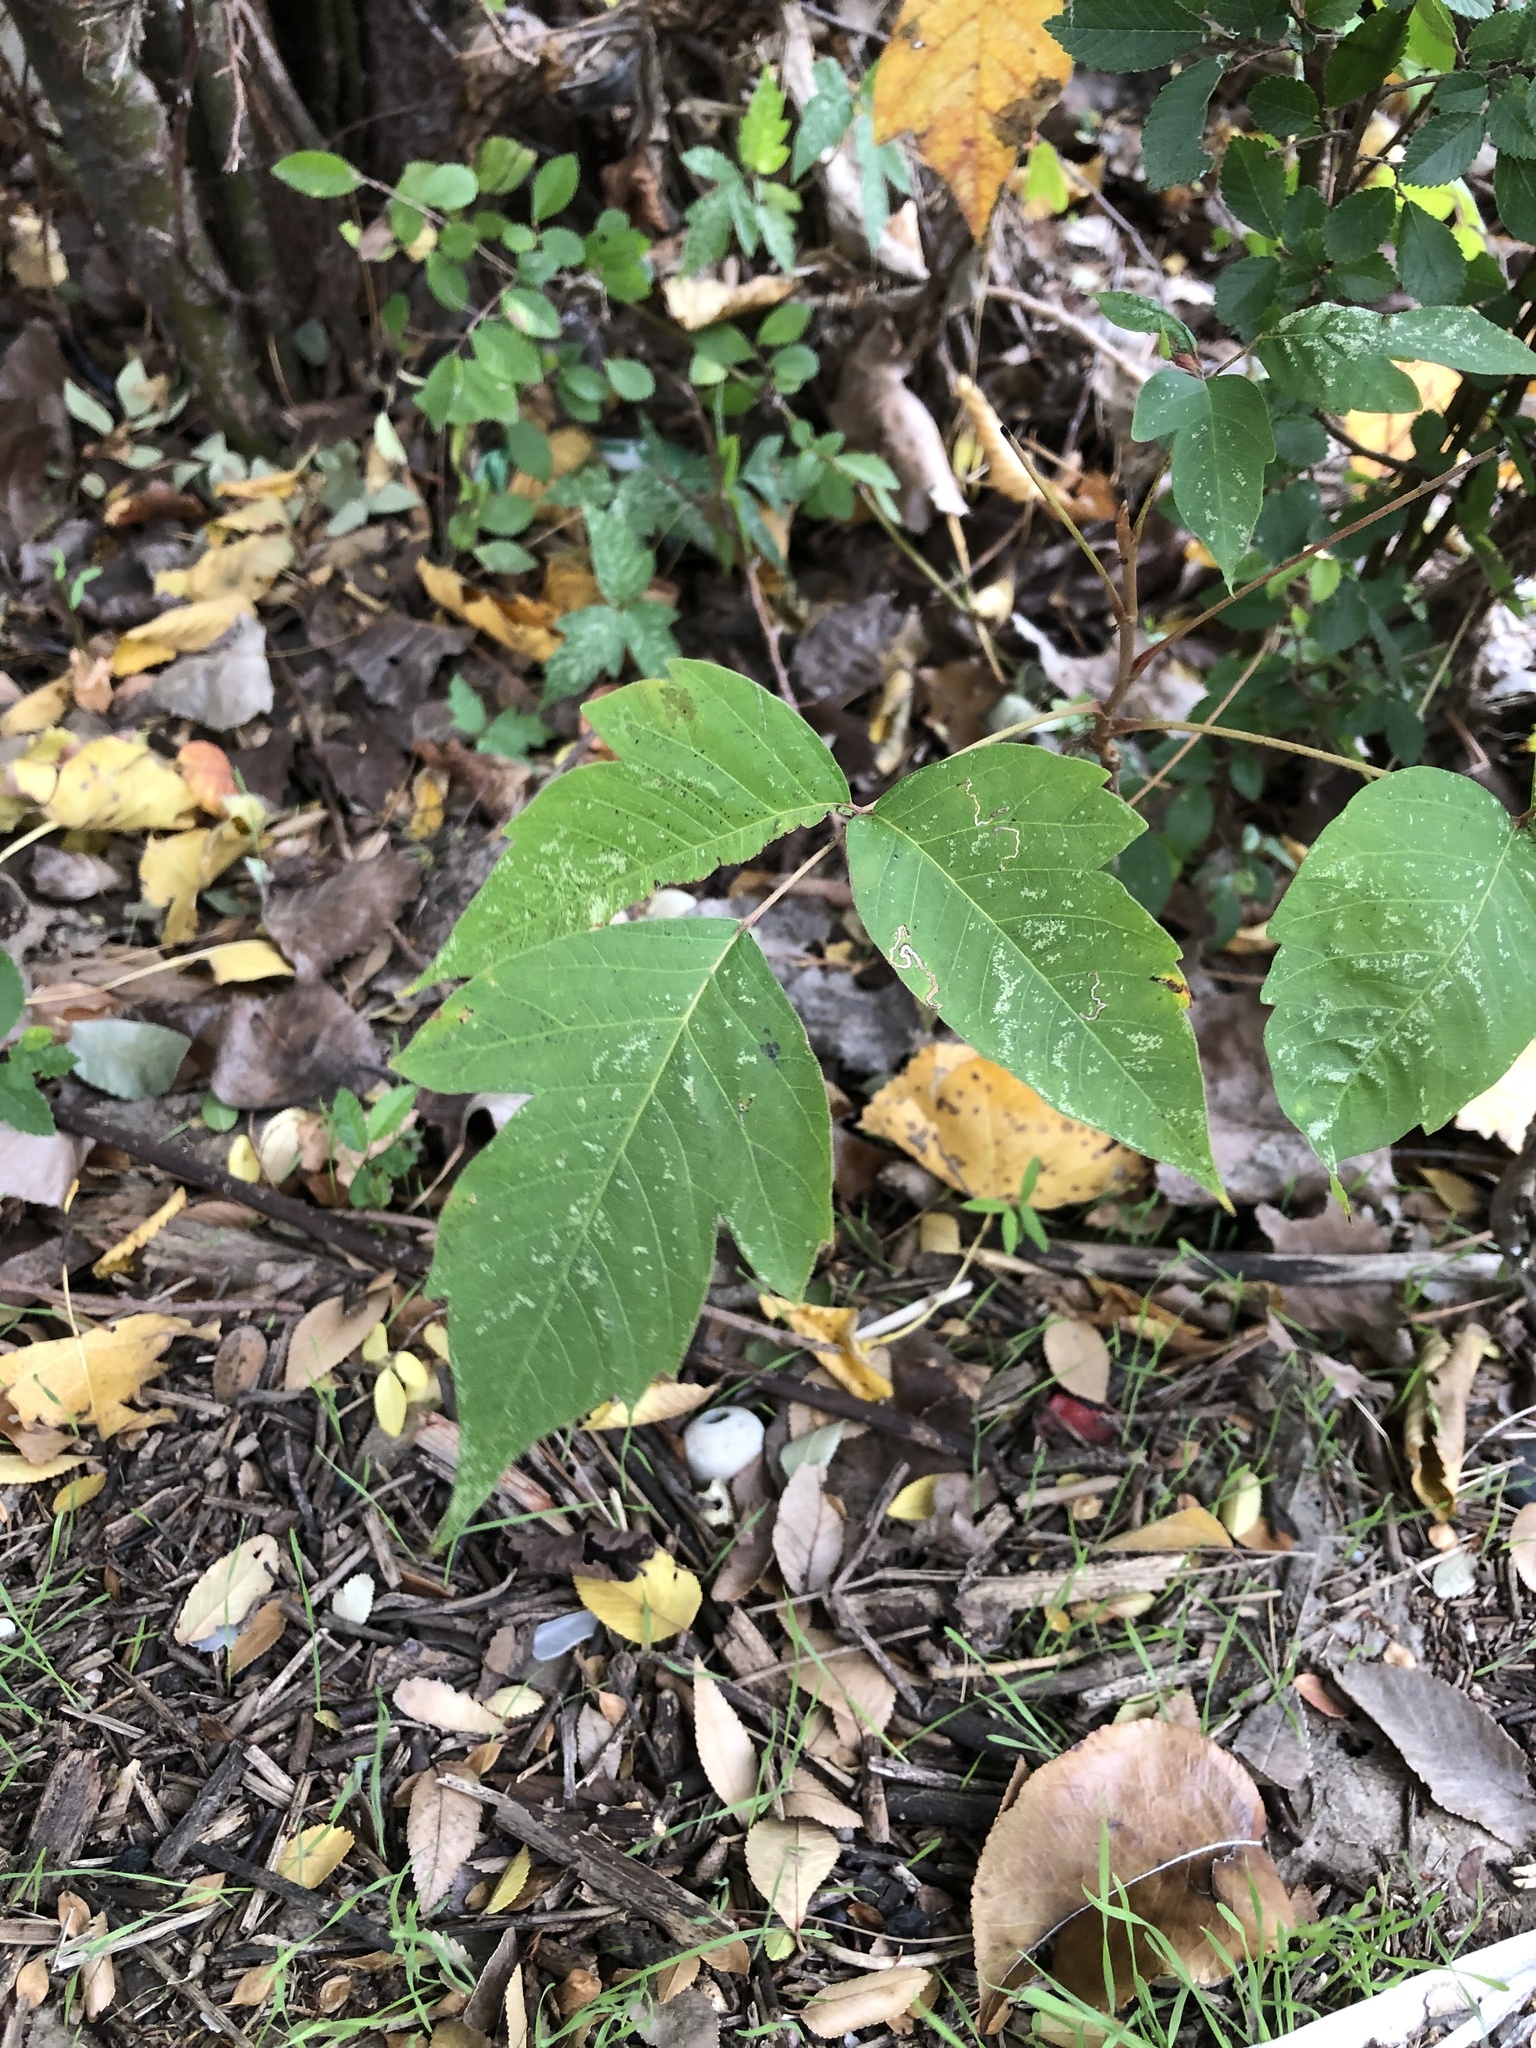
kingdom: Plantae
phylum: Tracheophyta
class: Magnoliopsida
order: Sapindales
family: Anacardiaceae
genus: Toxicodendron
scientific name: Toxicodendron radicans
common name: Poison ivy
